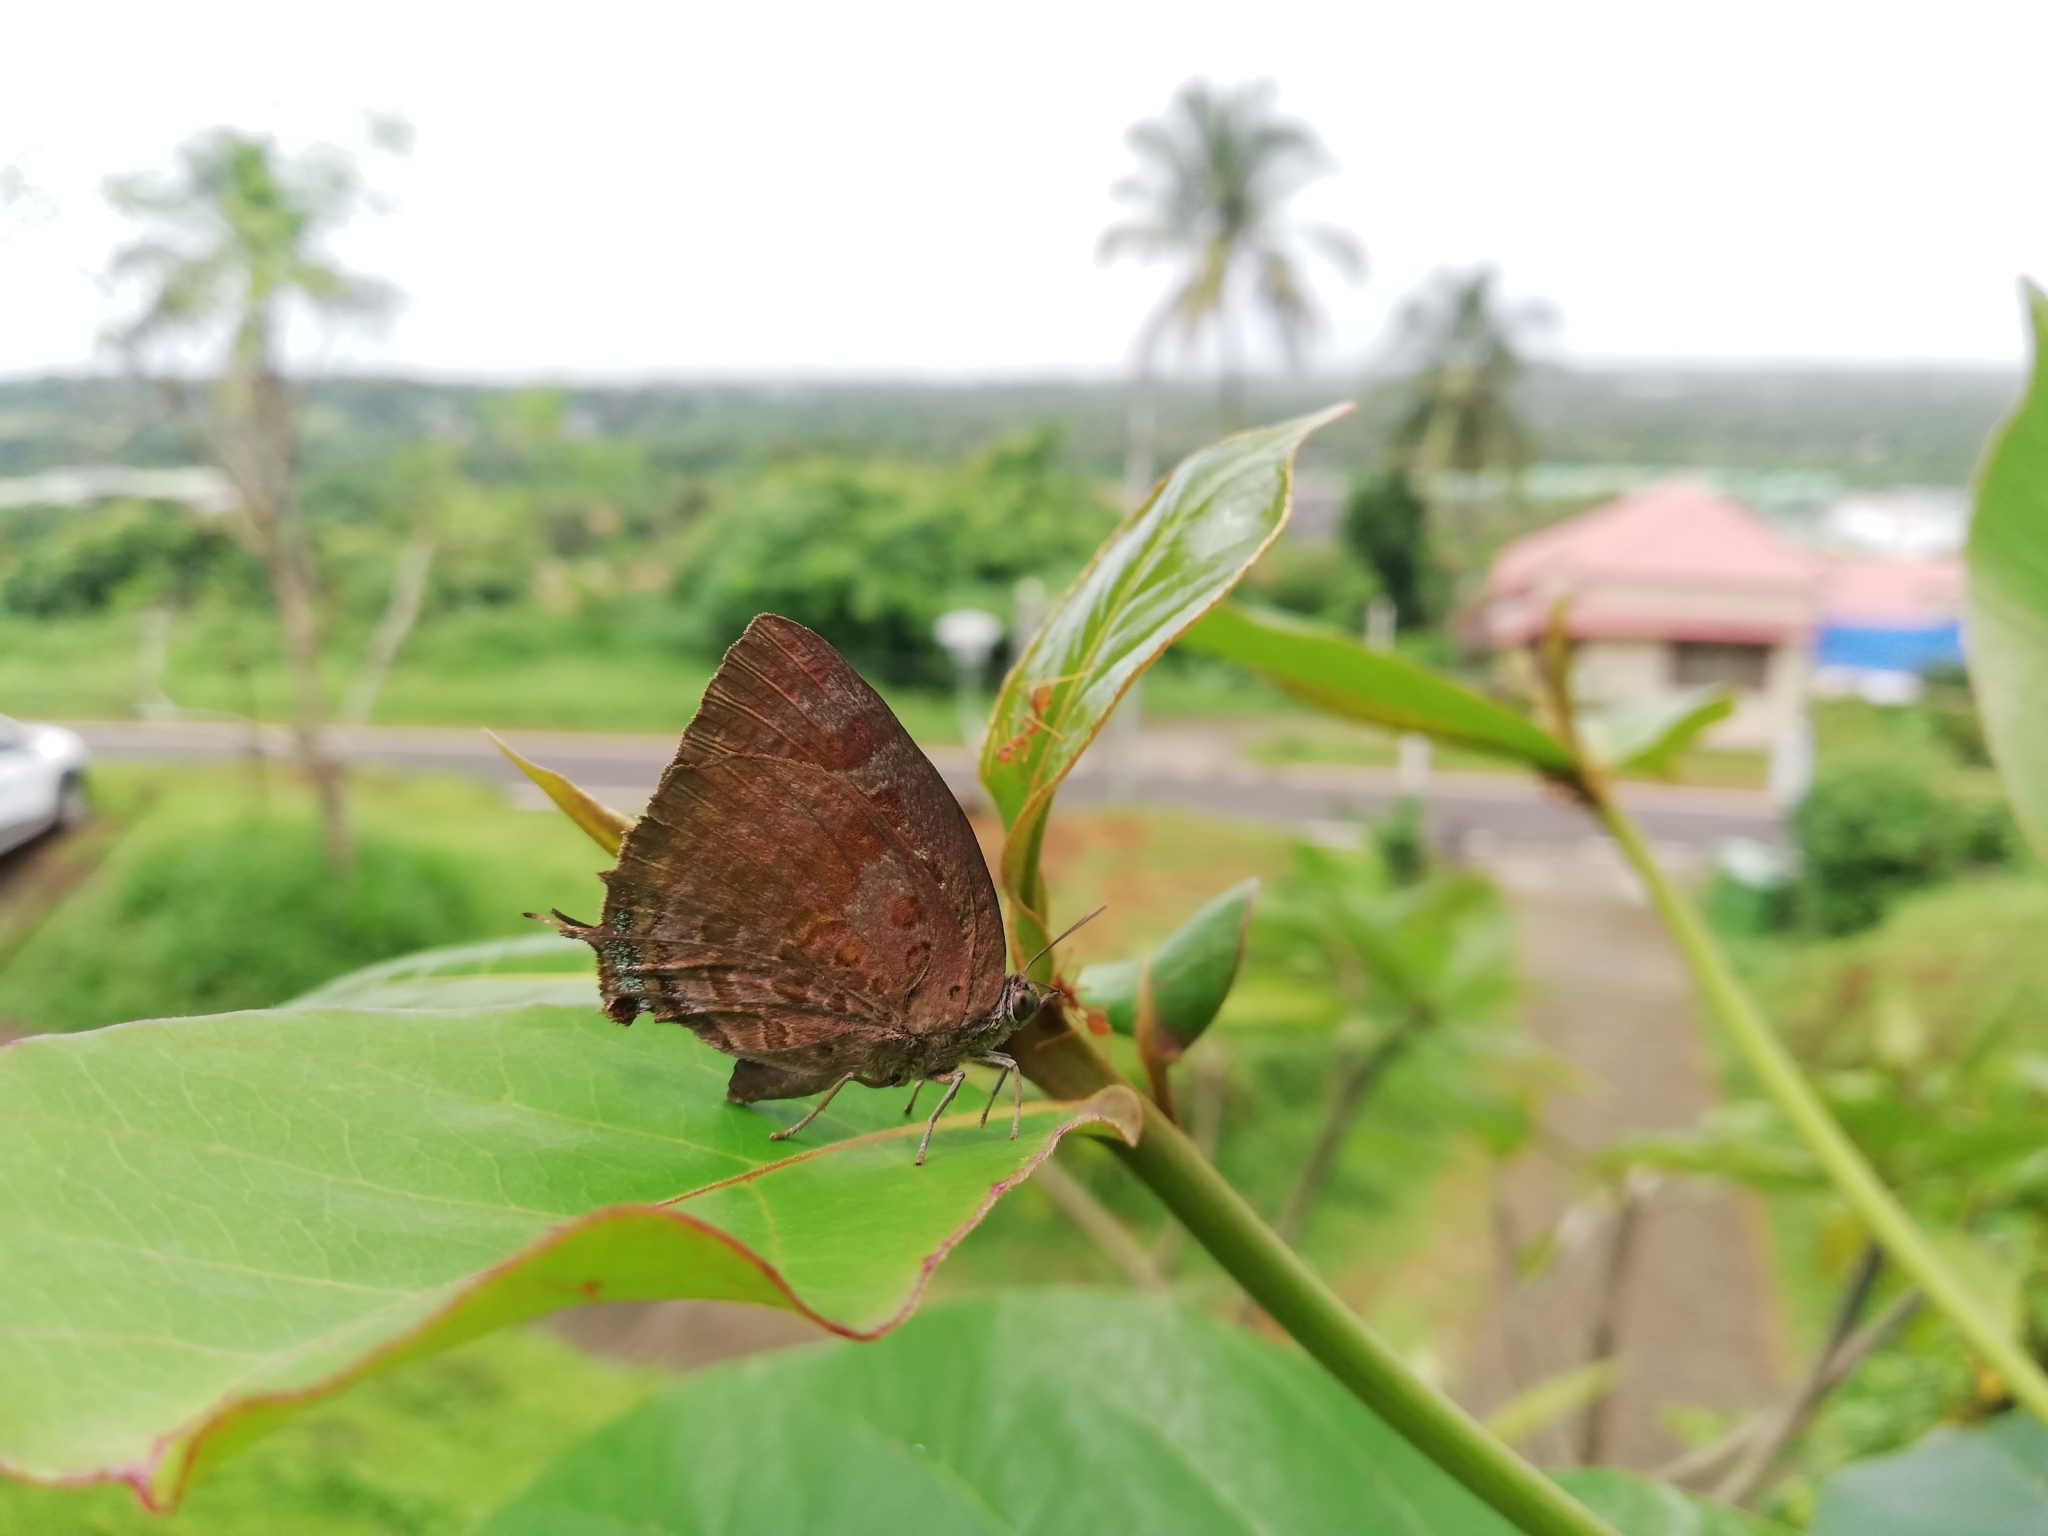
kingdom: Animalia
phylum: Arthropoda
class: Insecta
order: Lepidoptera
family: Lycaenidae
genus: Arhopala
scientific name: Arhopala centaurus
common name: Dull oak-blue
